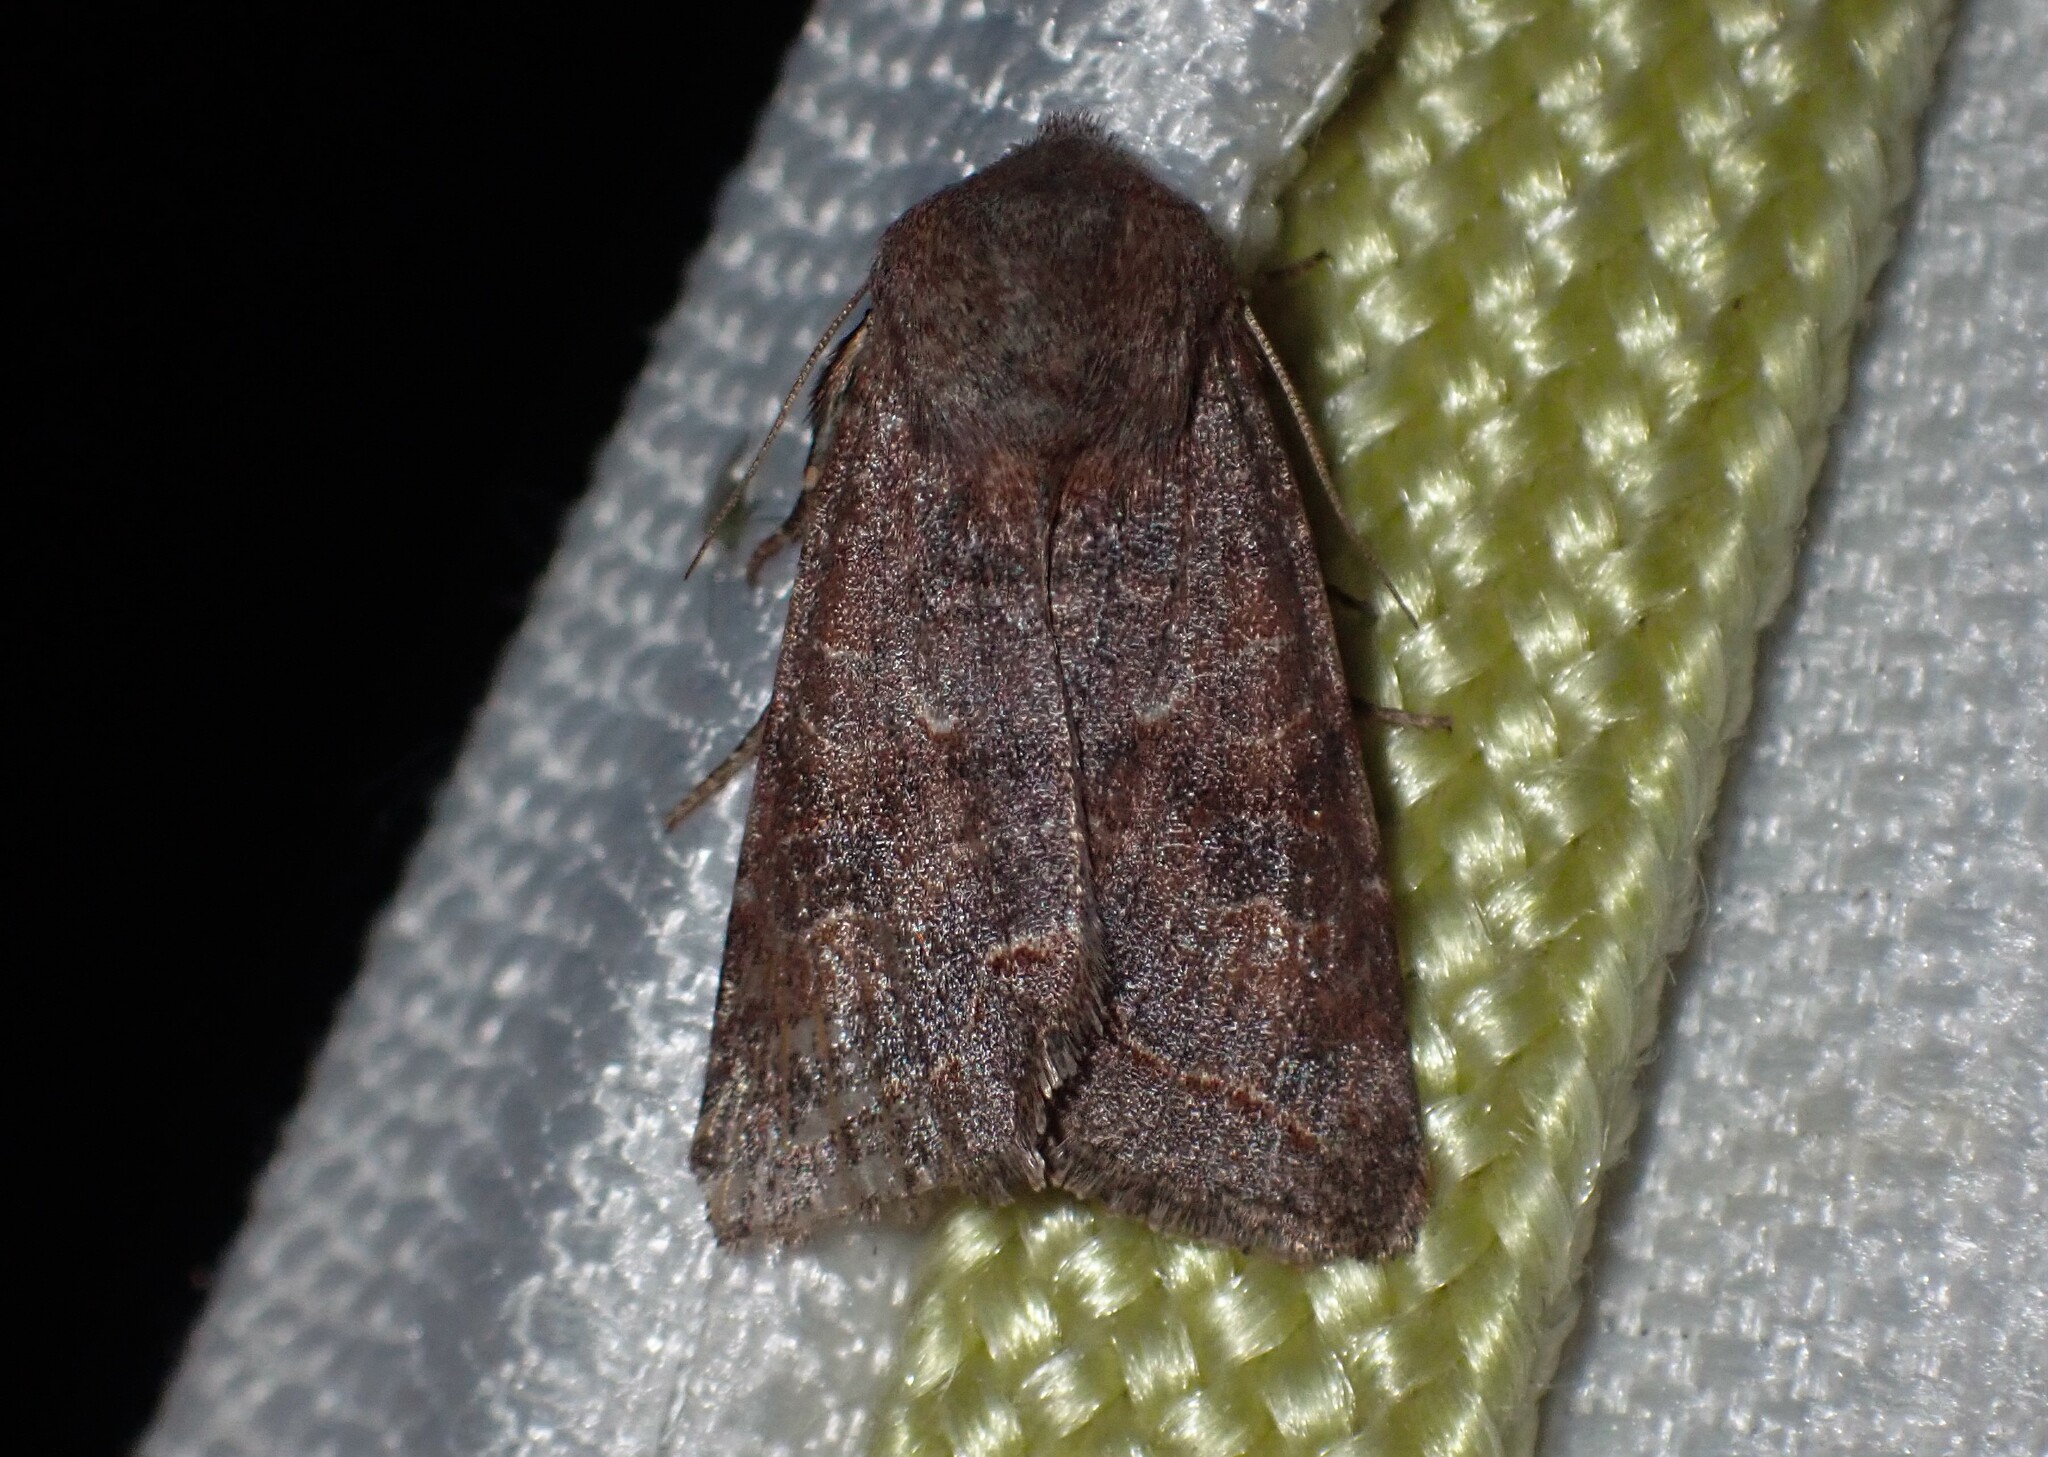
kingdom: Animalia
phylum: Arthropoda
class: Insecta
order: Lepidoptera
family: Noctuidae
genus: Orthosia
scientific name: Orthosia revicta
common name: Rusty whitesided caterpillar
